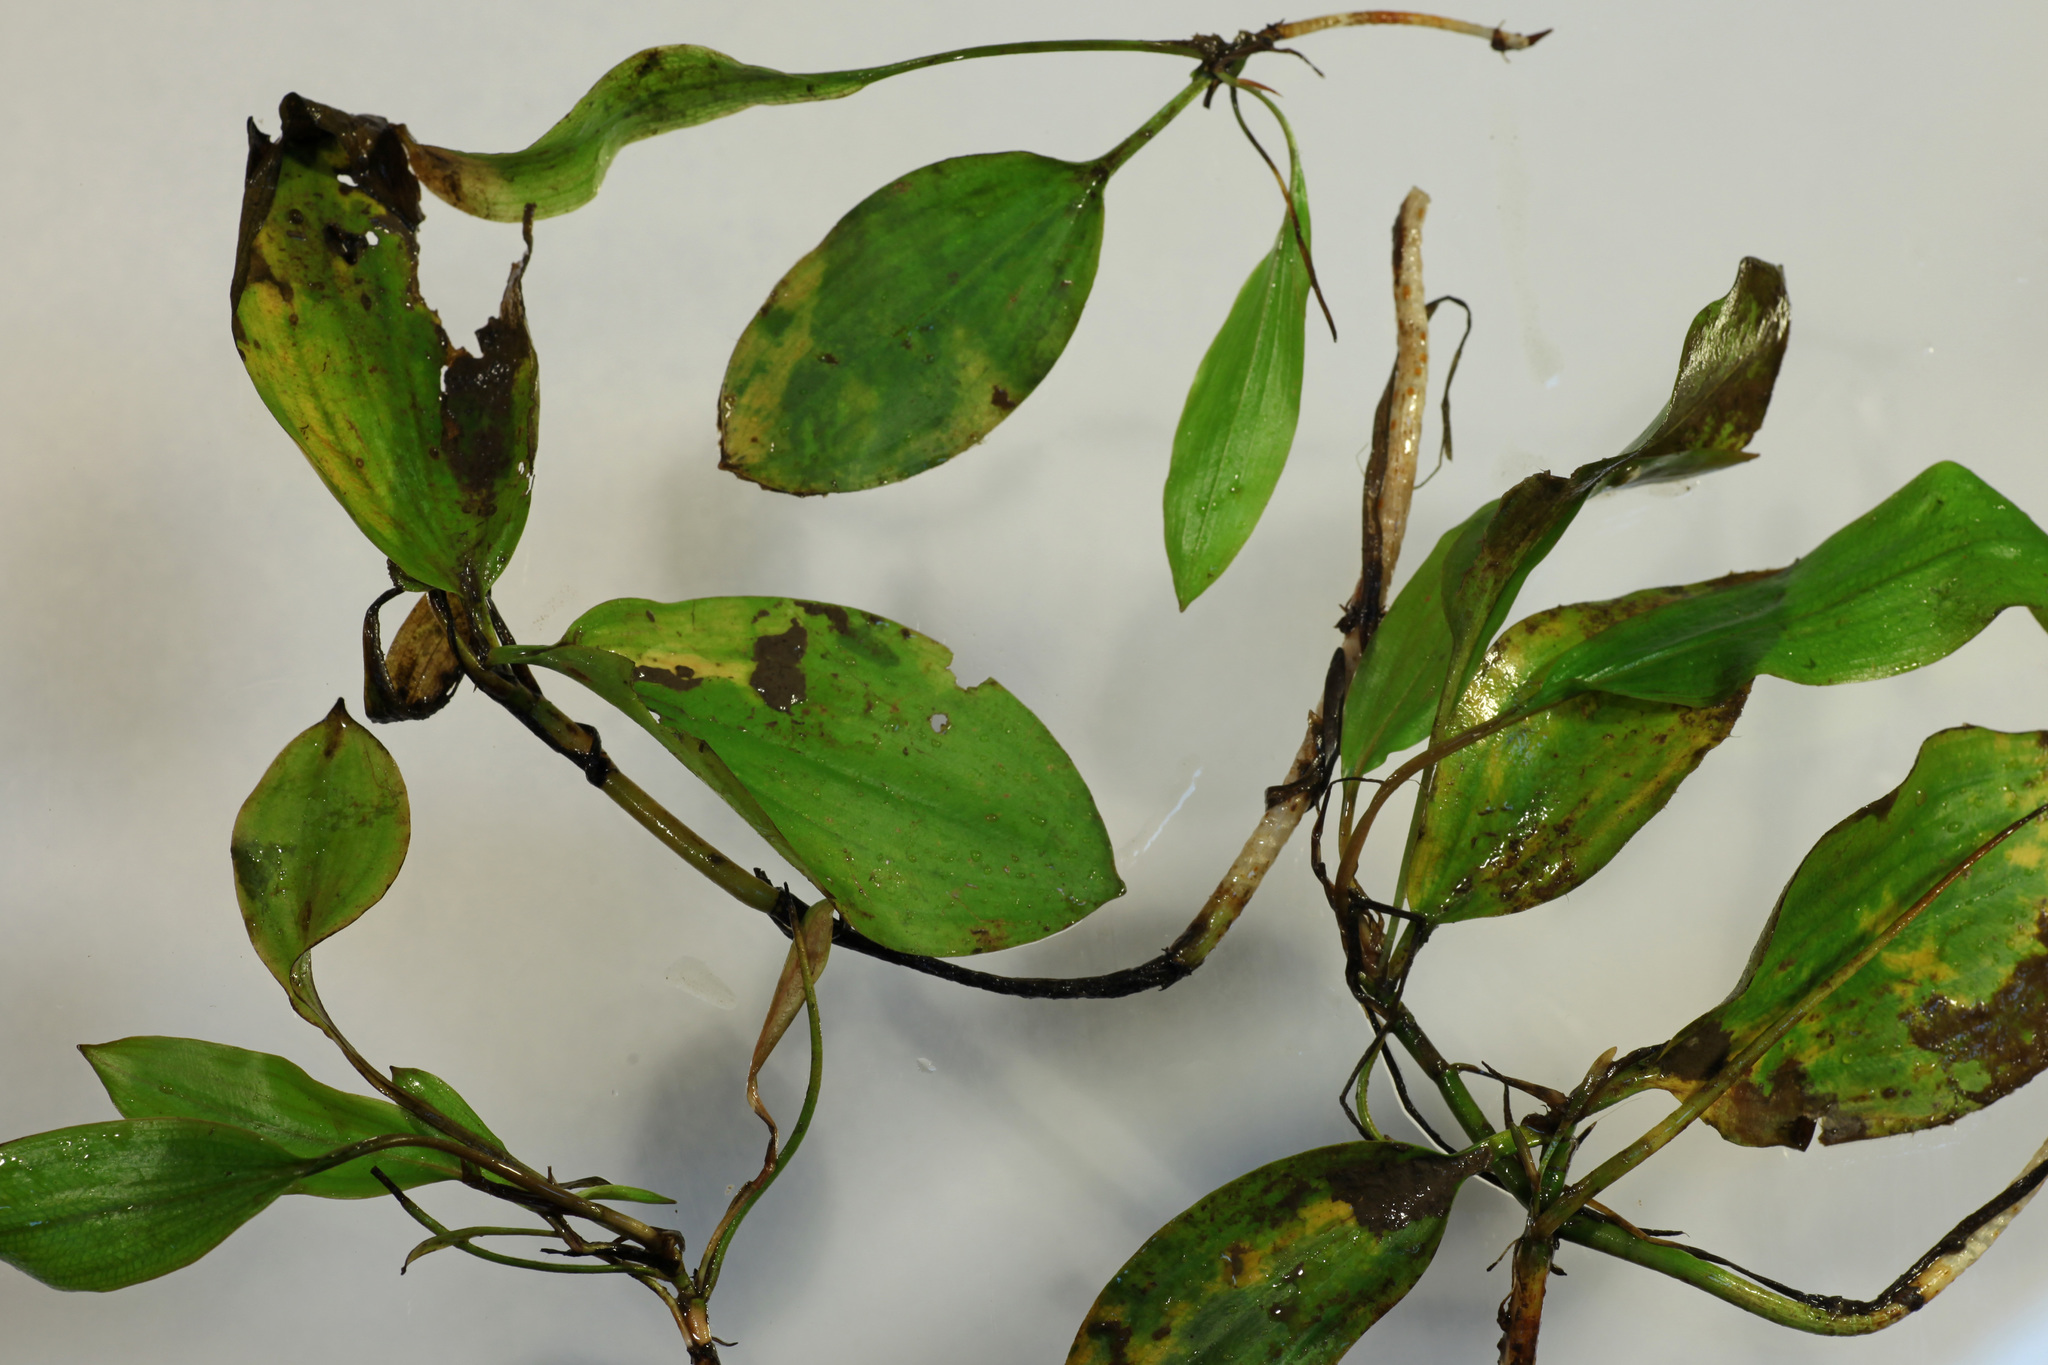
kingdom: Plantae
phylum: Tracheophyta
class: Liliopsida
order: Alismatales
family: Potamogetonaceae
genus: Potamogeton
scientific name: Potamogeton gramineus
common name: Various-leaved pondweed
